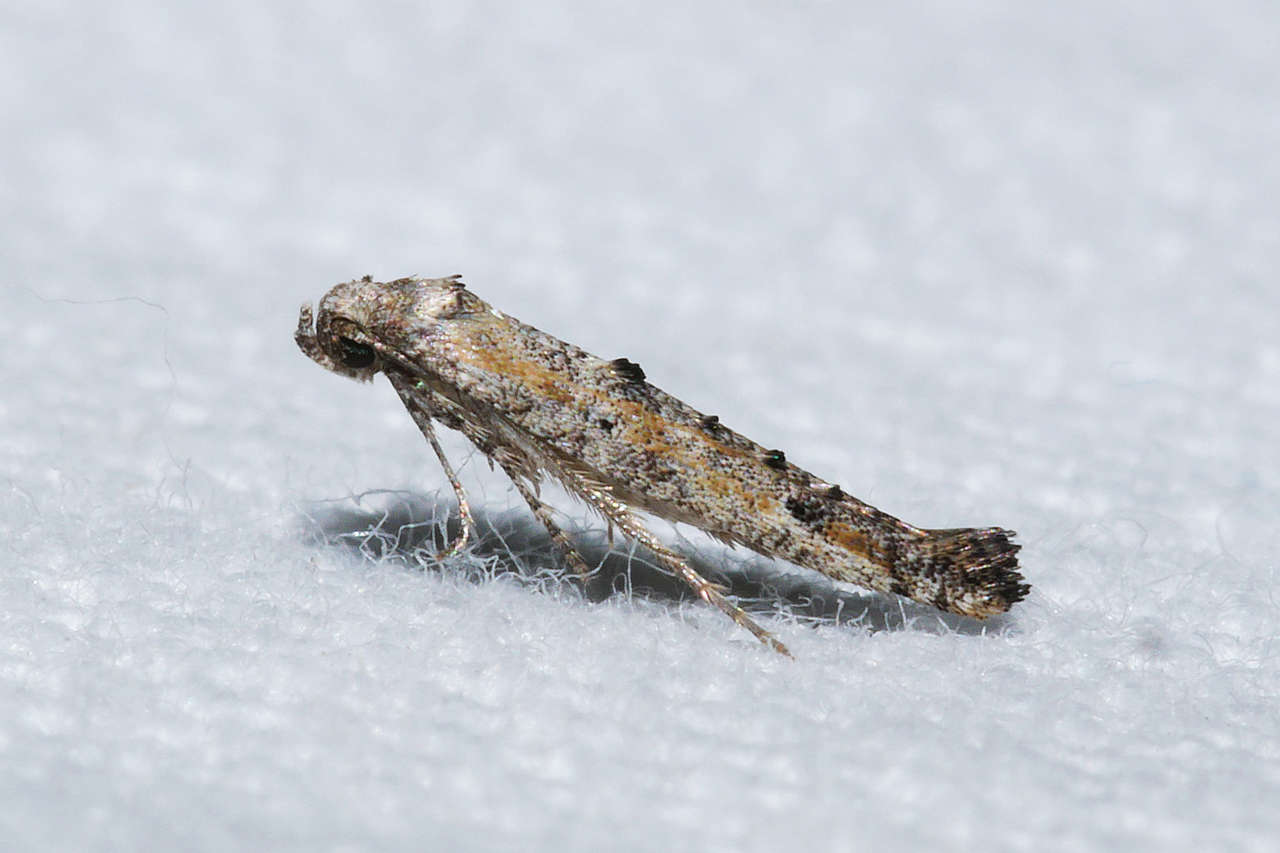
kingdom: Animalia
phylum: Arthropoda
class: Insecta
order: Lepidoptera
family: Epermeniidae
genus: Epermenia
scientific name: Epermenia exilis
